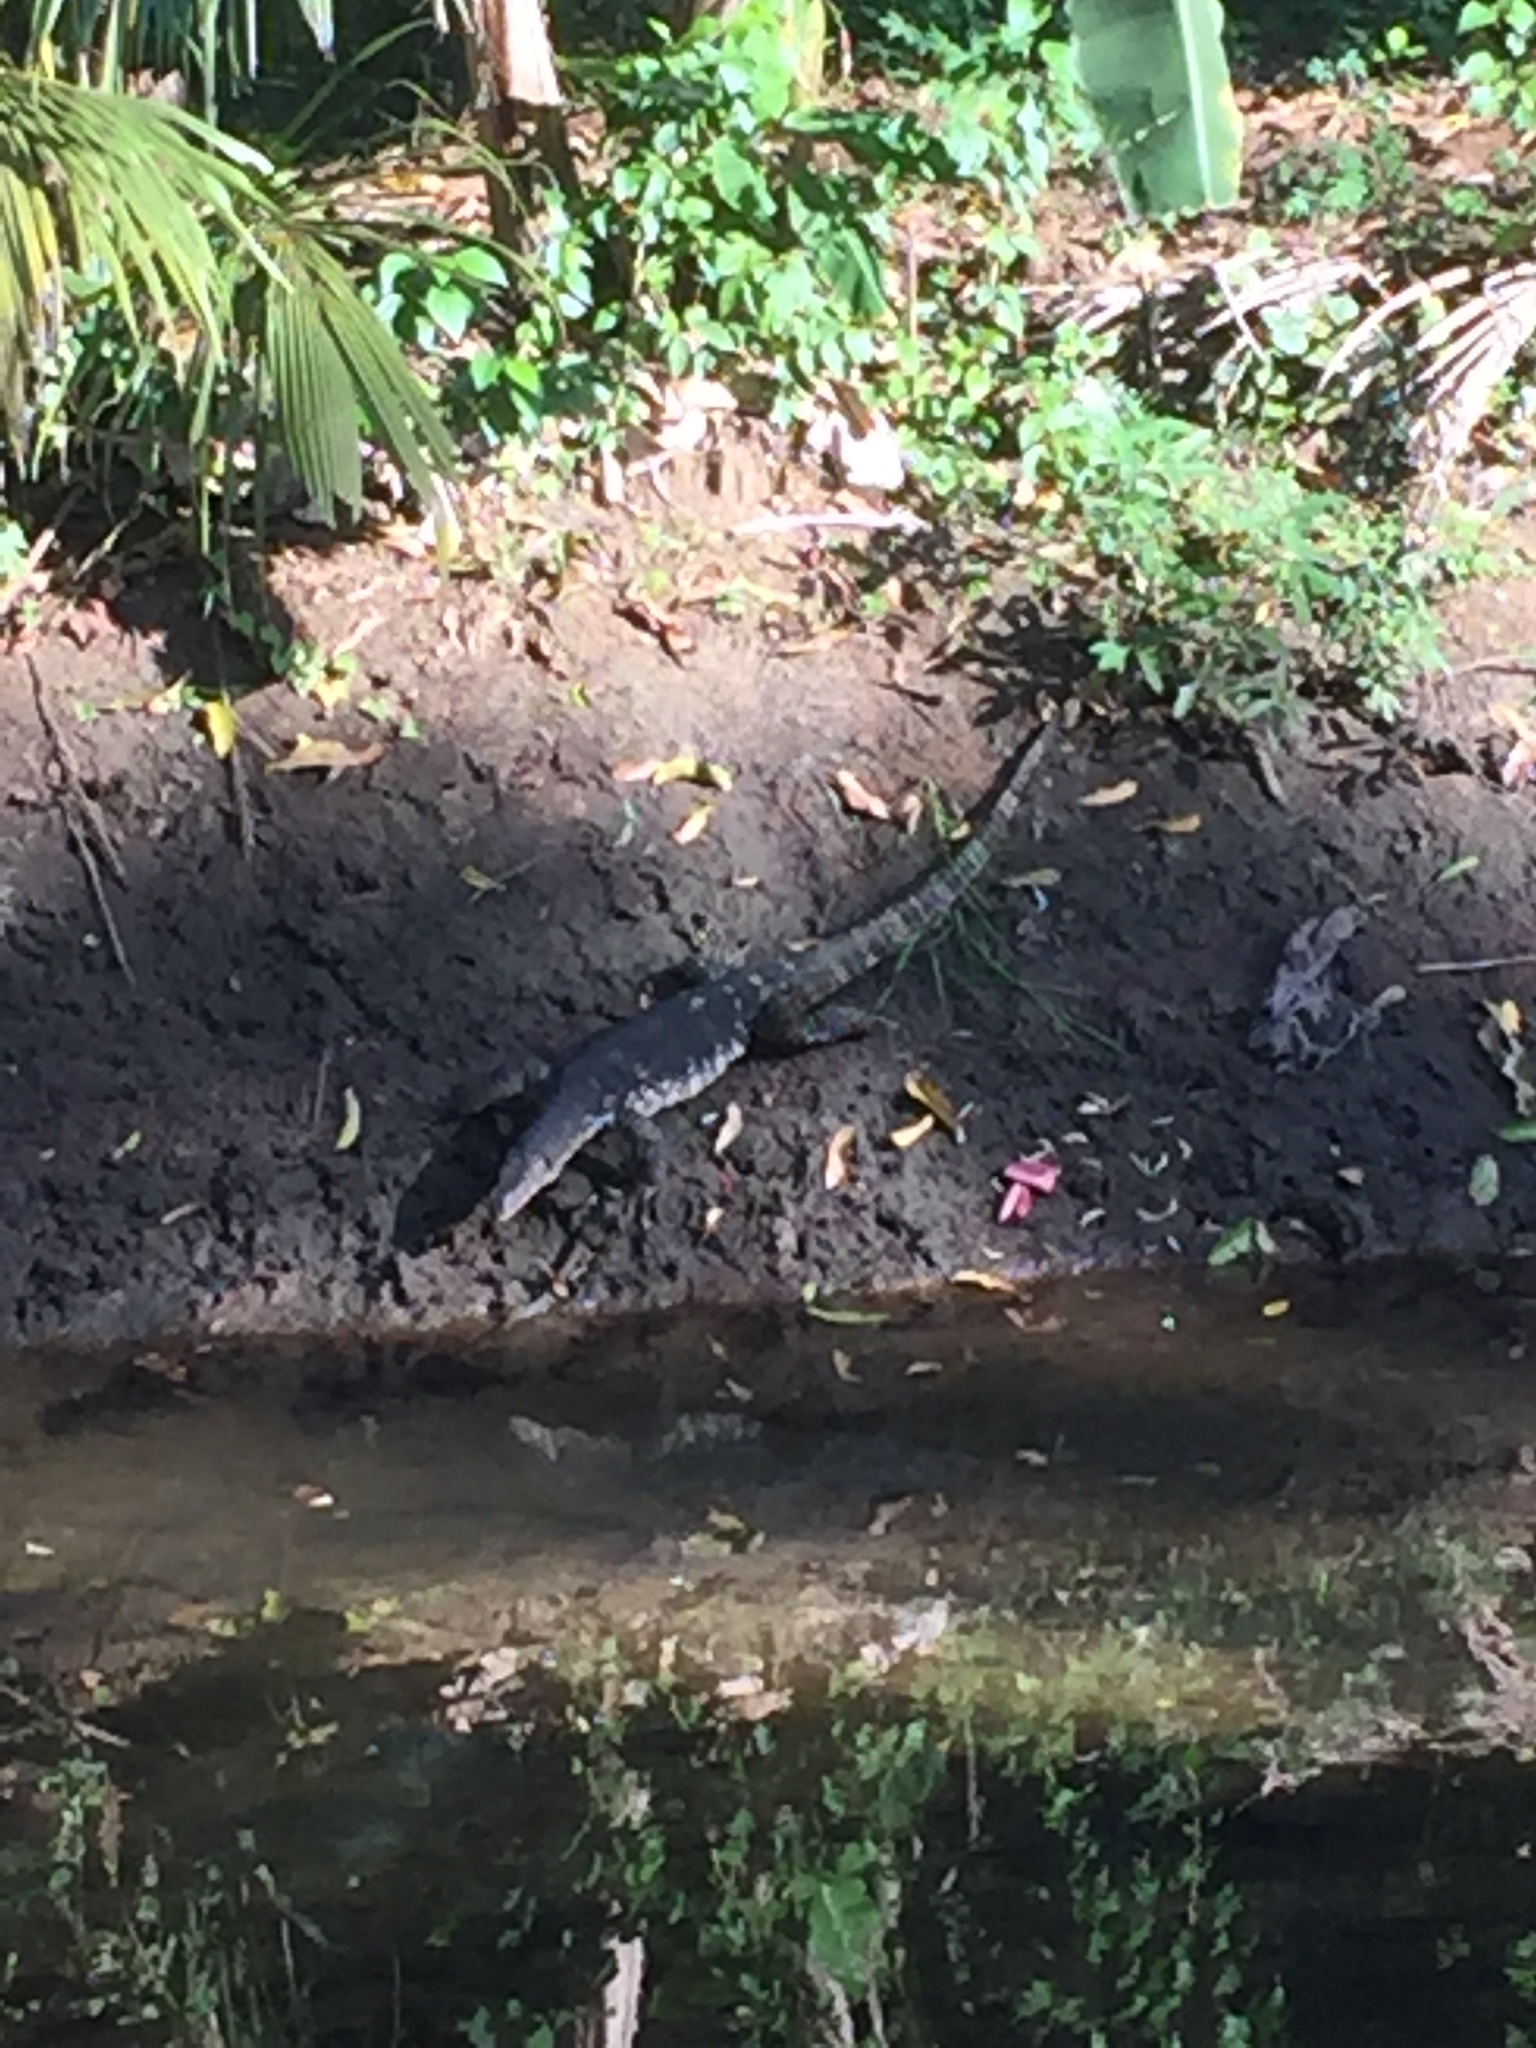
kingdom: Animalia
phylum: Chordata
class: Squamata
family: Varanidae
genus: Varanus
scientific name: Varanus salvator
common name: Common water monitor
